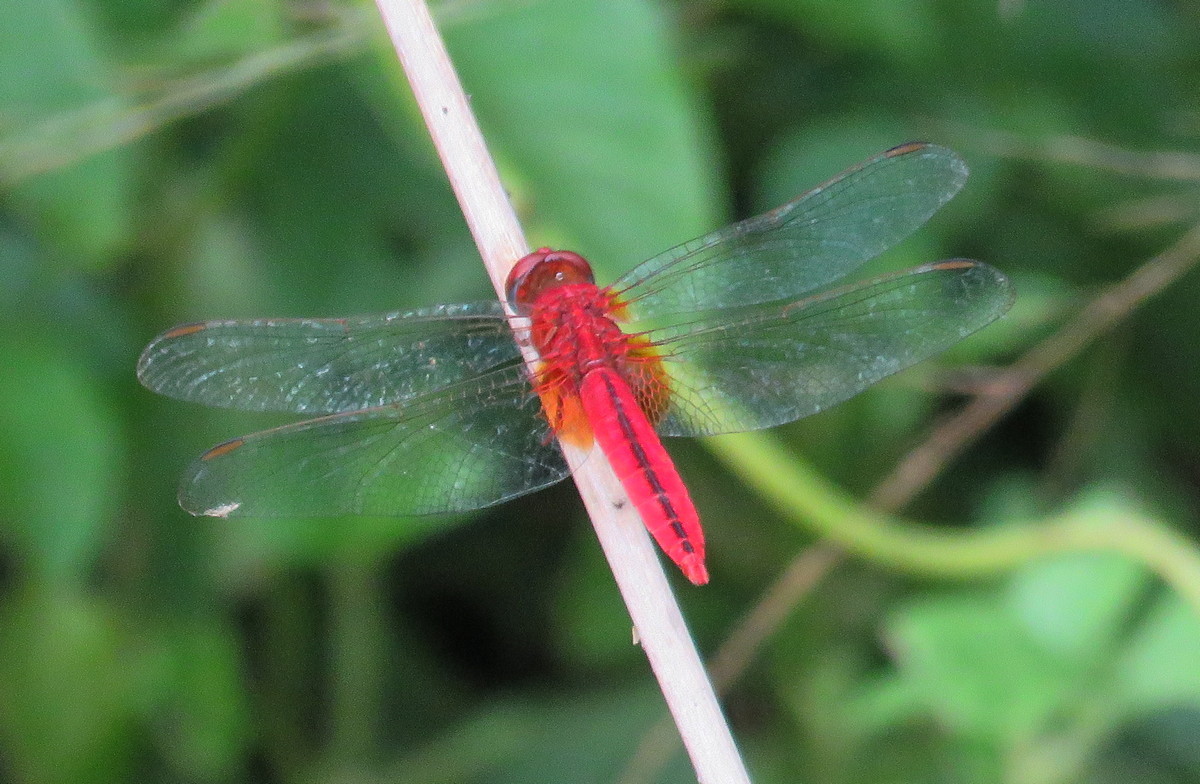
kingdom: Animalia
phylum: Arthropoda
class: Insecta
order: Odonata
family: Libellulidae
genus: Crocothemis
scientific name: Crocothemis servilia
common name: Scarlet skimmer
